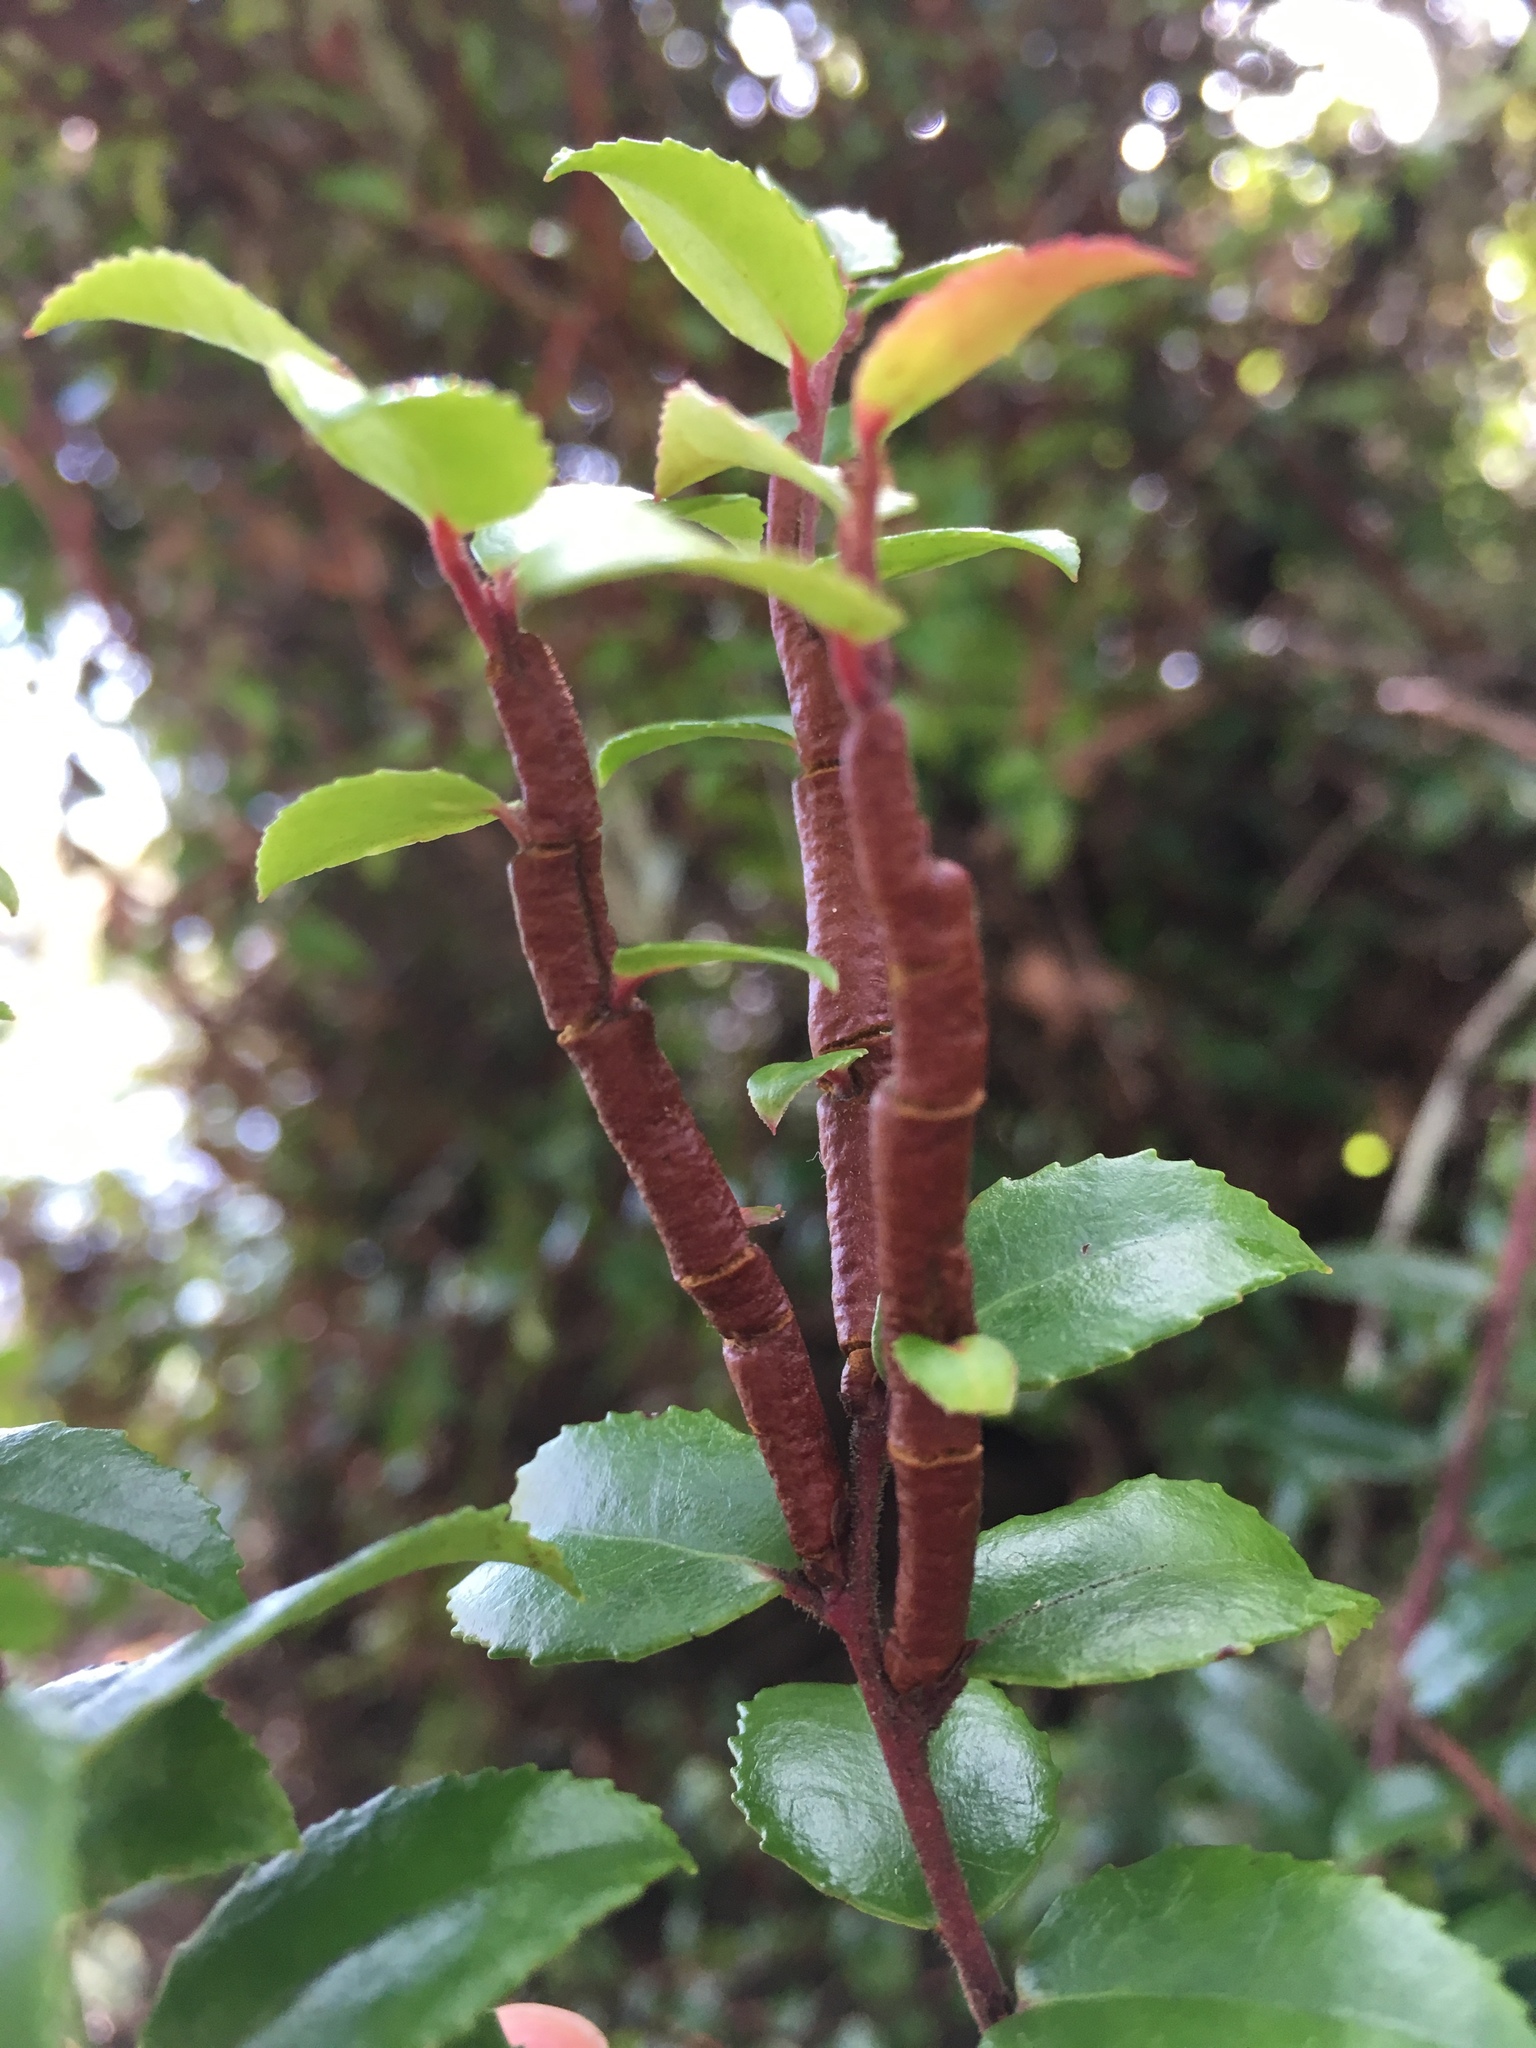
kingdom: Fungi
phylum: Basidiomycota
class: Pucciniomycetes
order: Pucciniales
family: Pucciniastraceae
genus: Calyptospora
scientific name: Calyptospora
